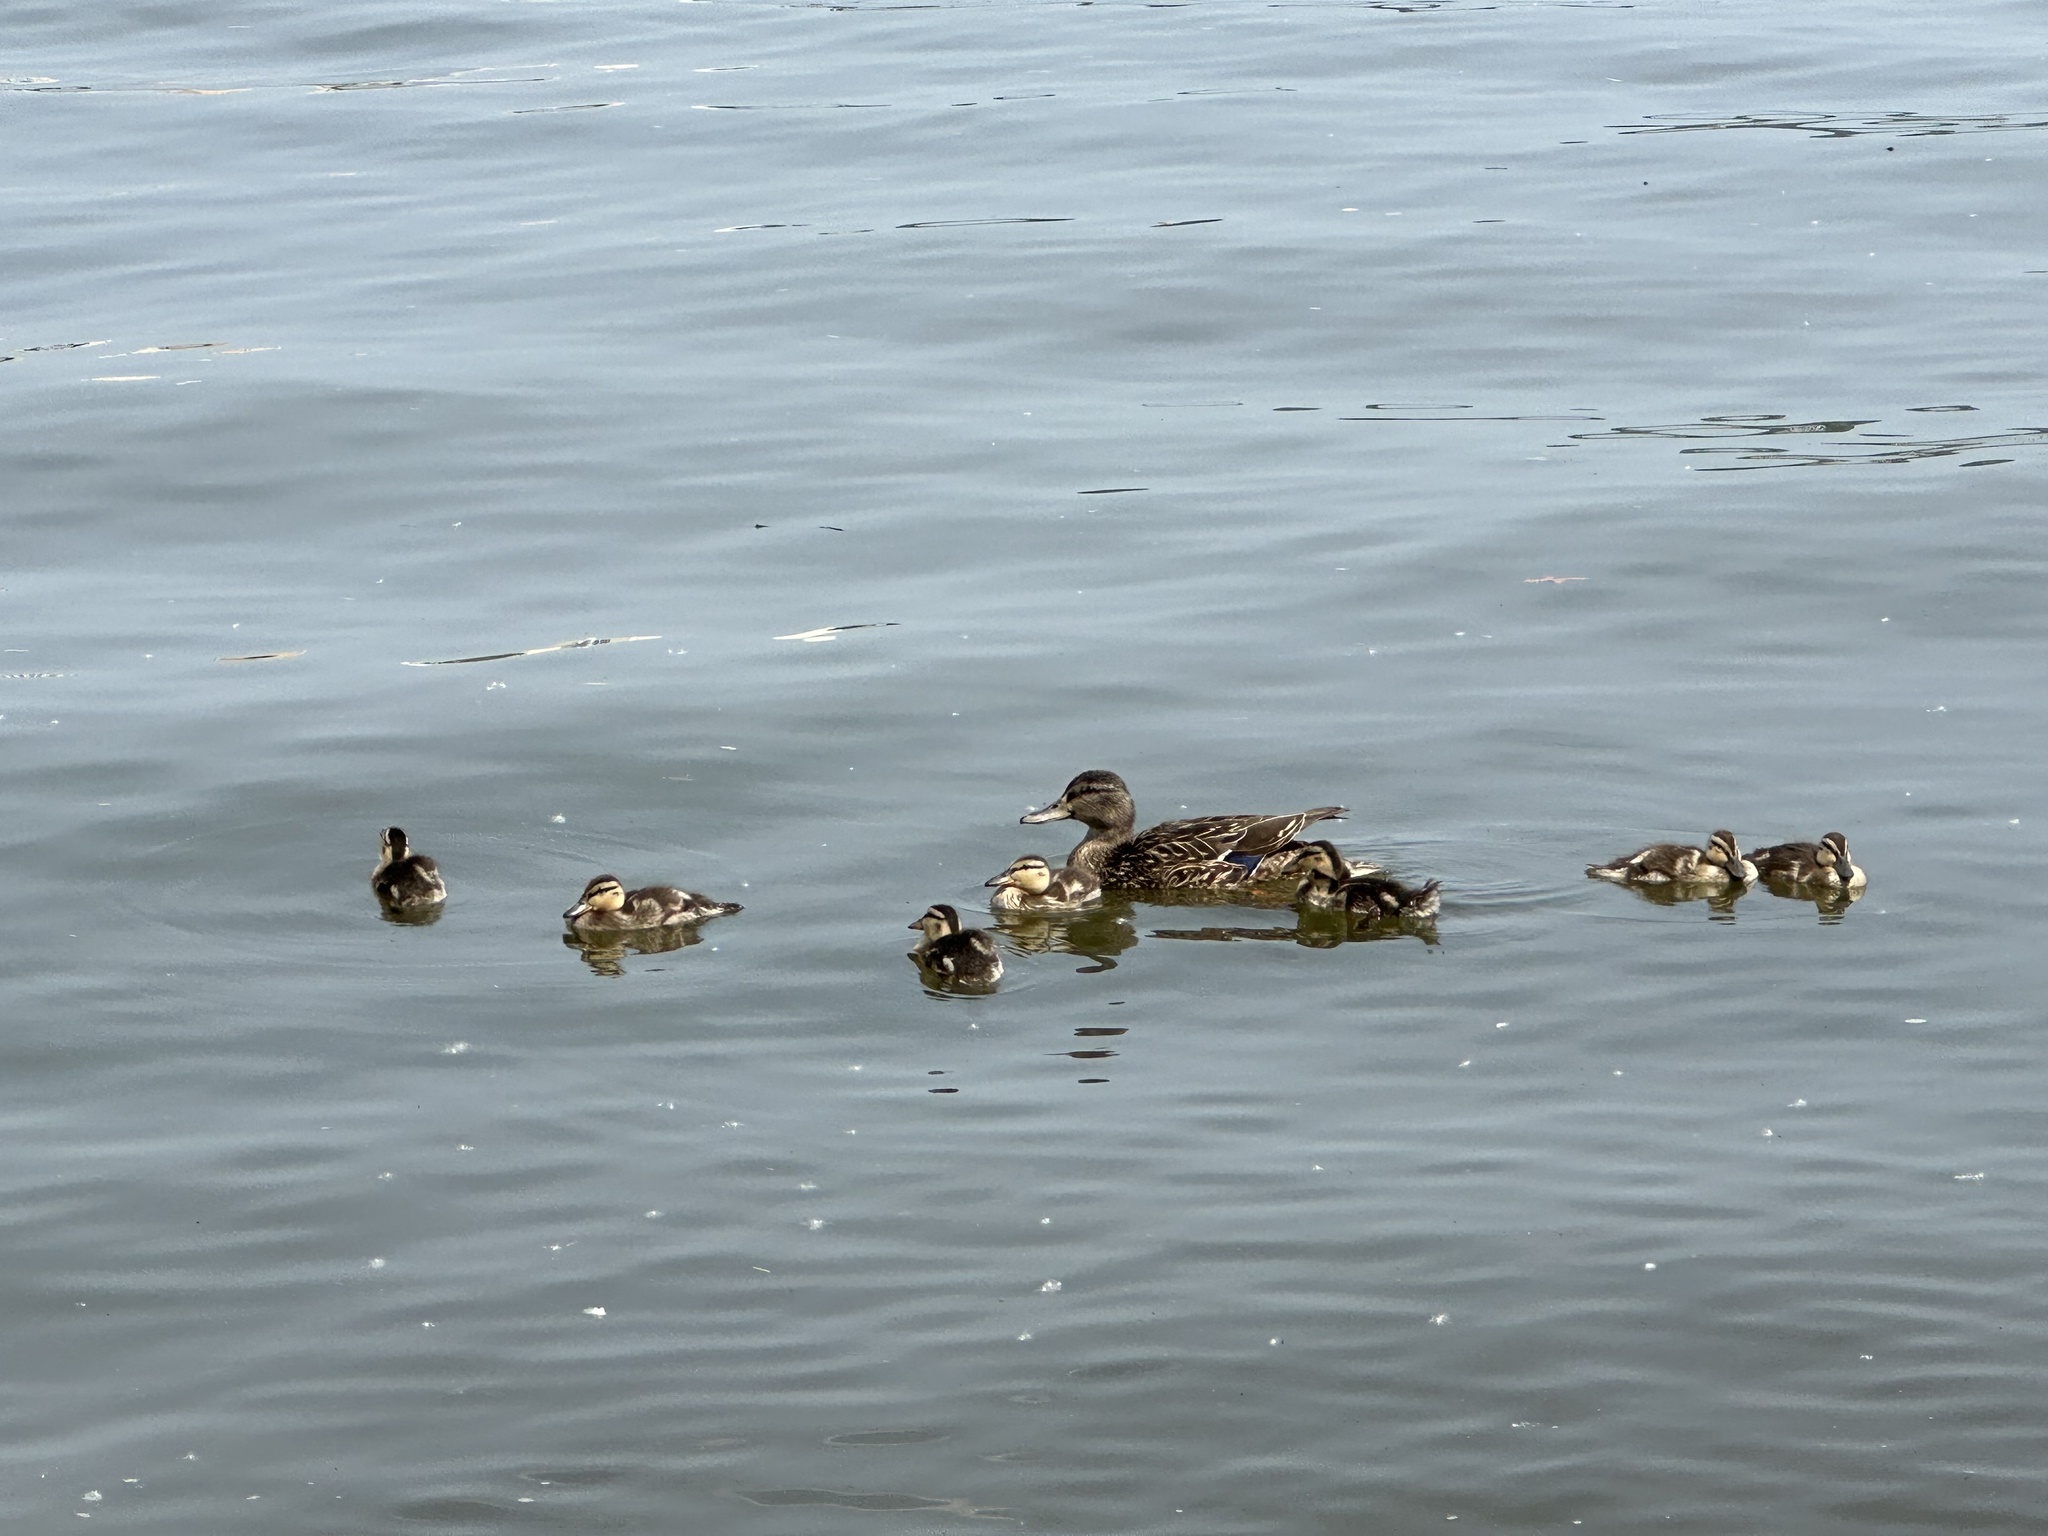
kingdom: Animalia
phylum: Chordata
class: Aves
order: Anseriformes
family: Anatidae
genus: Anas
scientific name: Anas platyrhynchos
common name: Mallard
